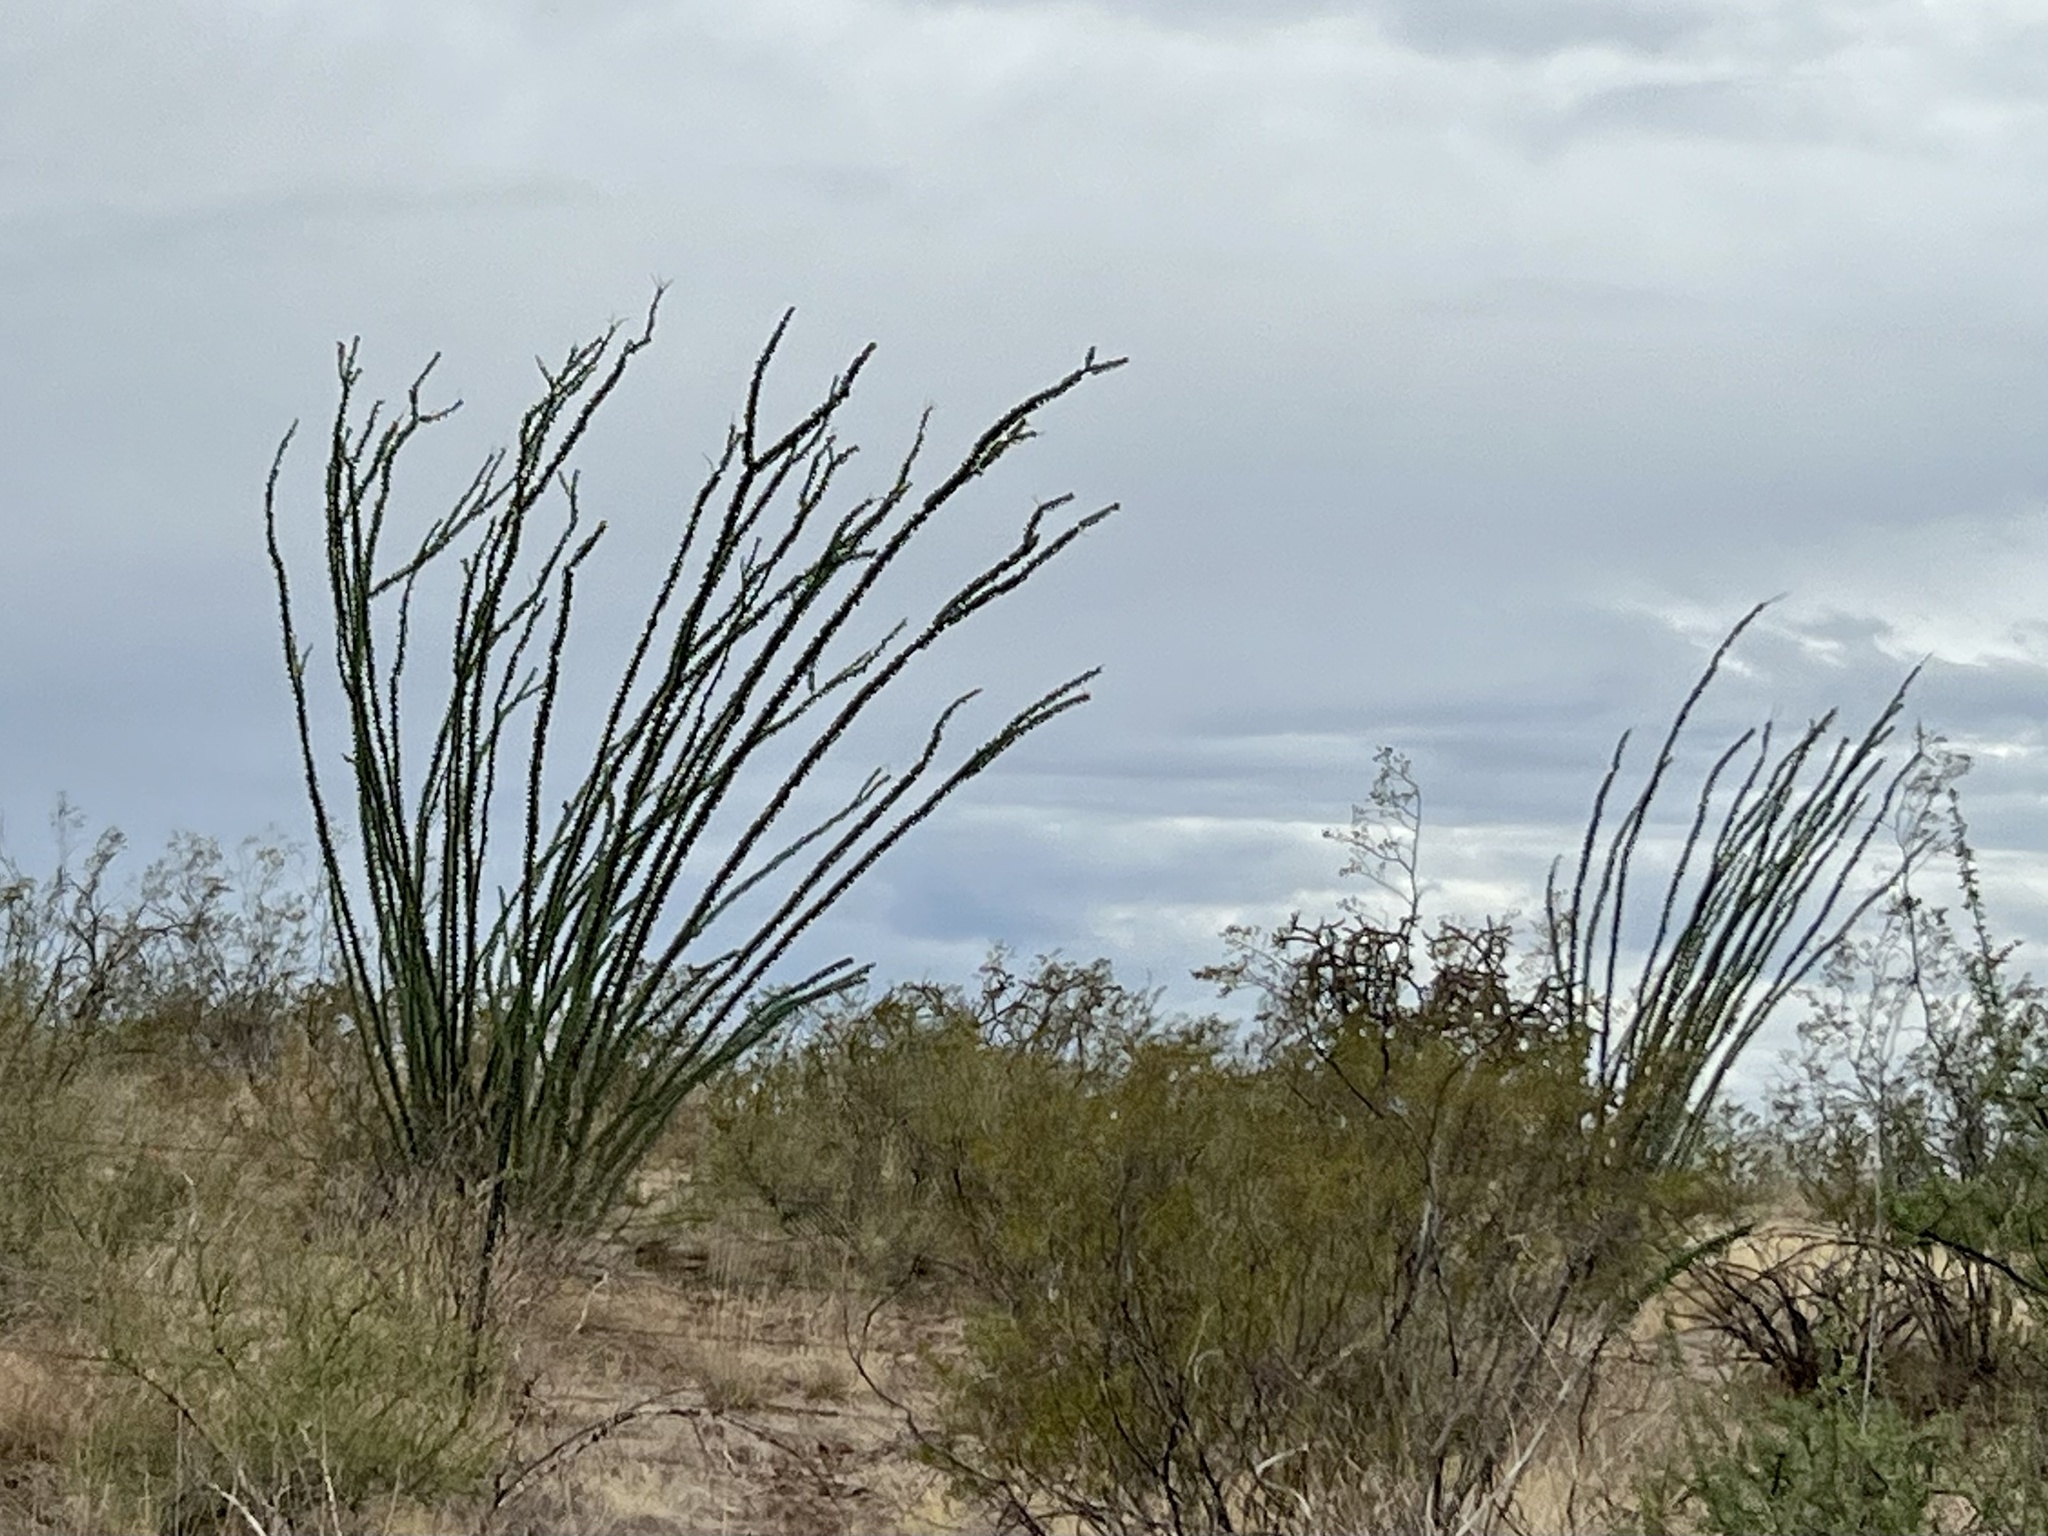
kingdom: Plantae
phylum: Tracheophyta
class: Magnoliopsida
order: Ericales
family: Fouquieriaceae
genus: Fouquieria
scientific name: Fouquieria splendens
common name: Vine-cactus
